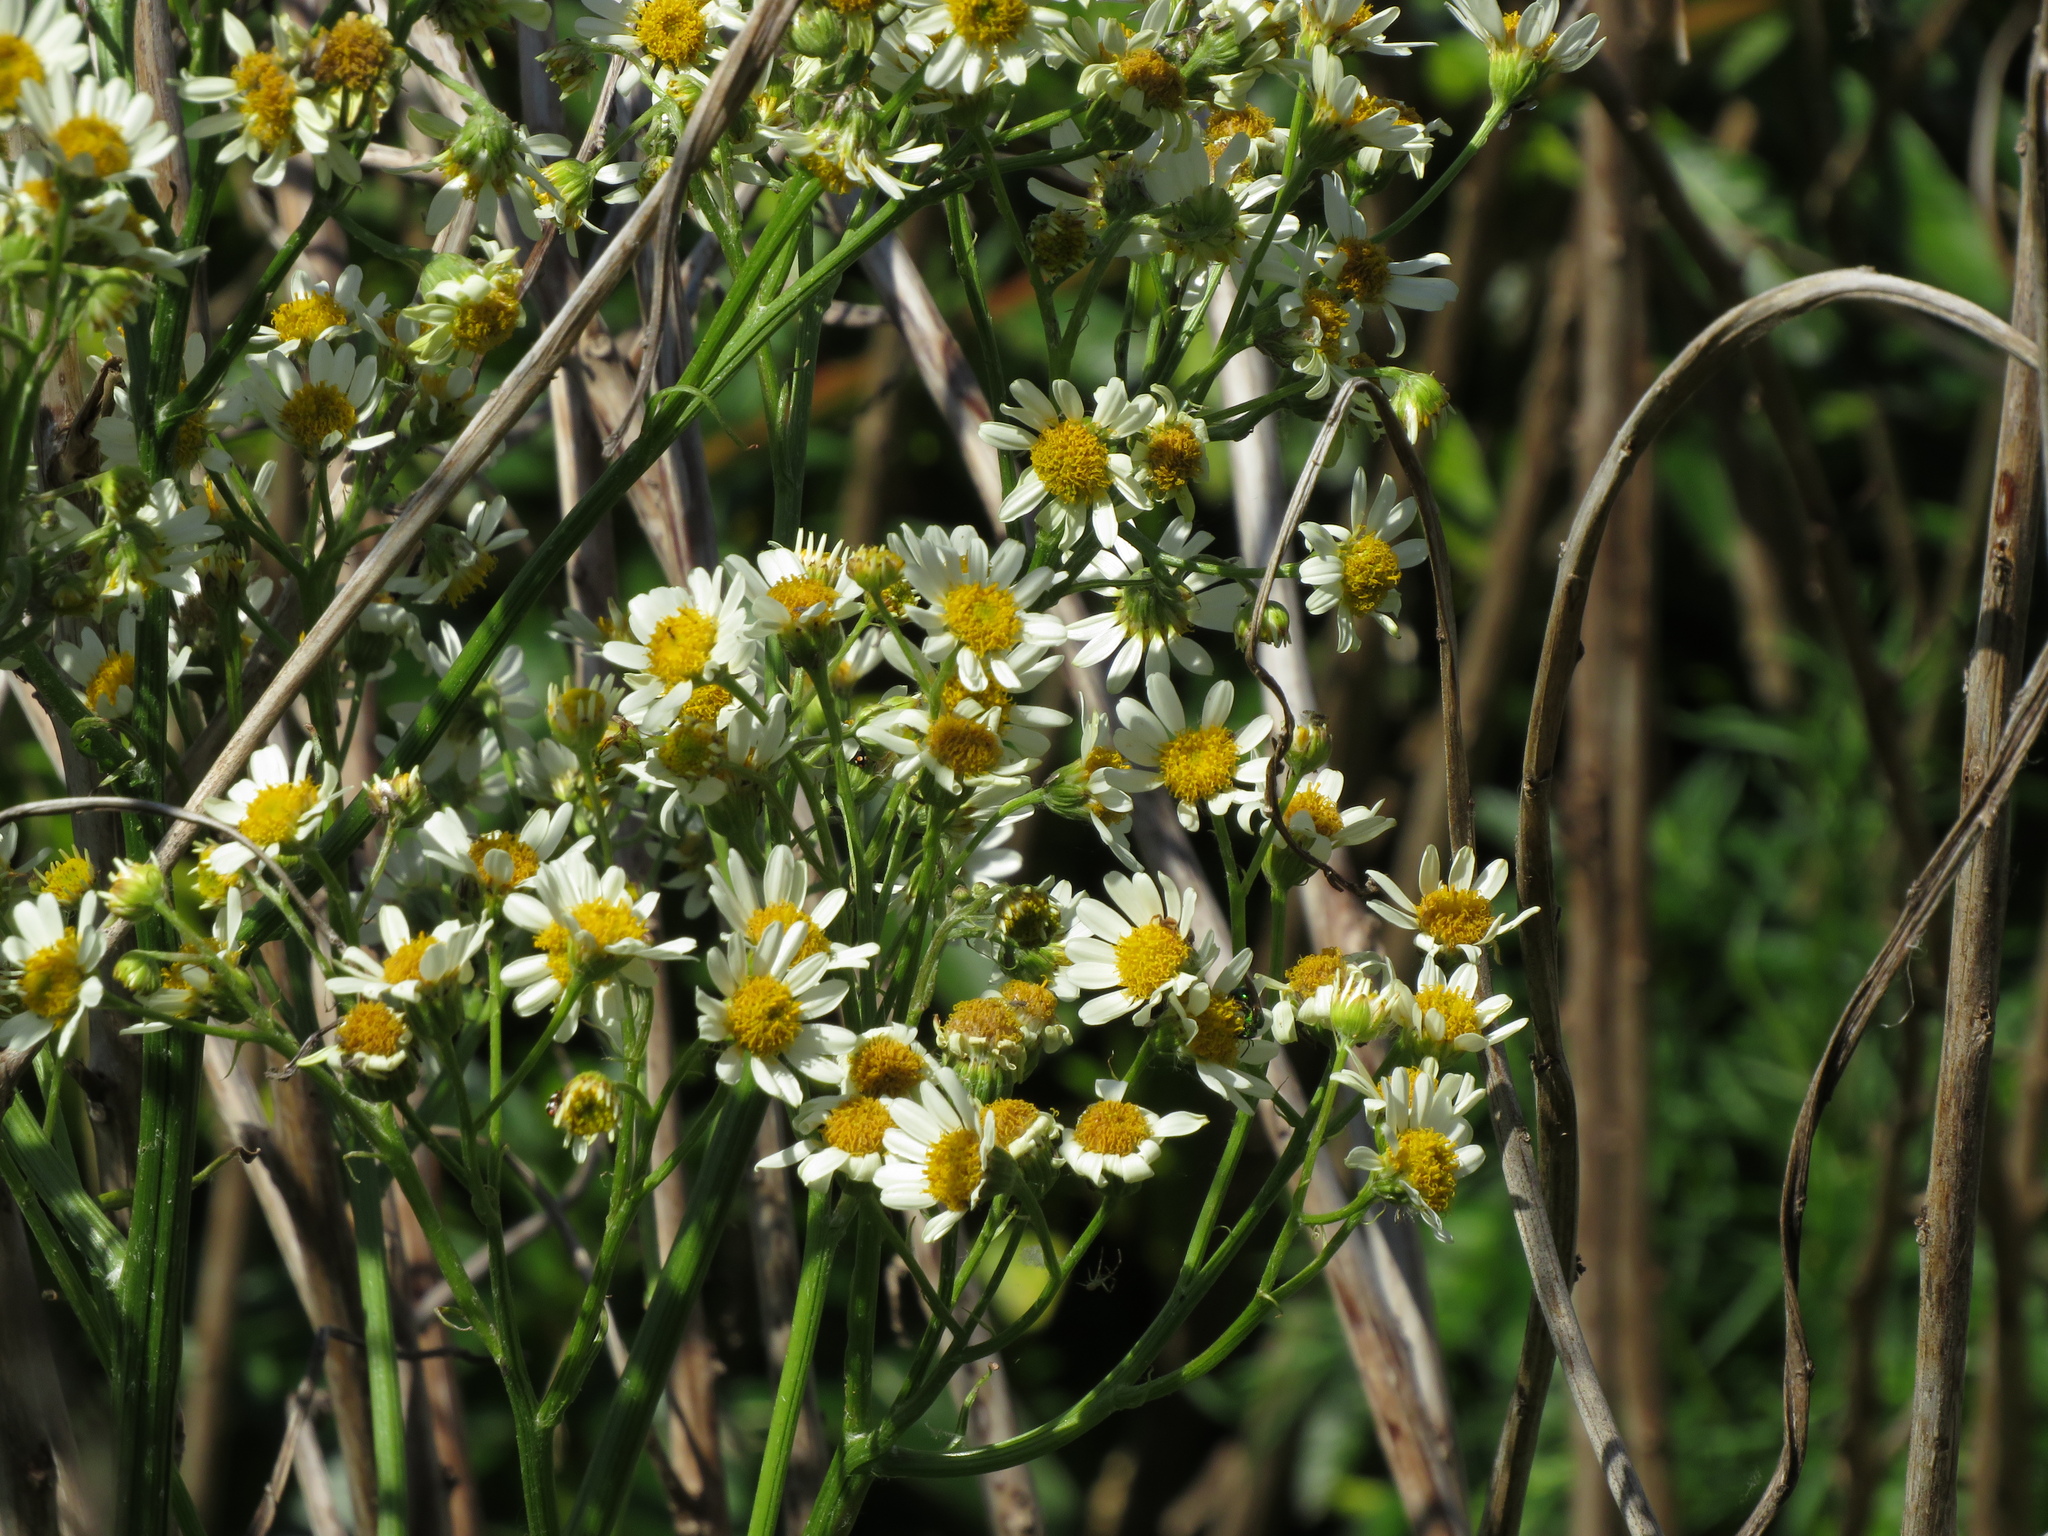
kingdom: Plantae
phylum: Tracheophyta
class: Magnoliopsida
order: Asterales
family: Asteraceae
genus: Senecio
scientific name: Senecio bonariensis
